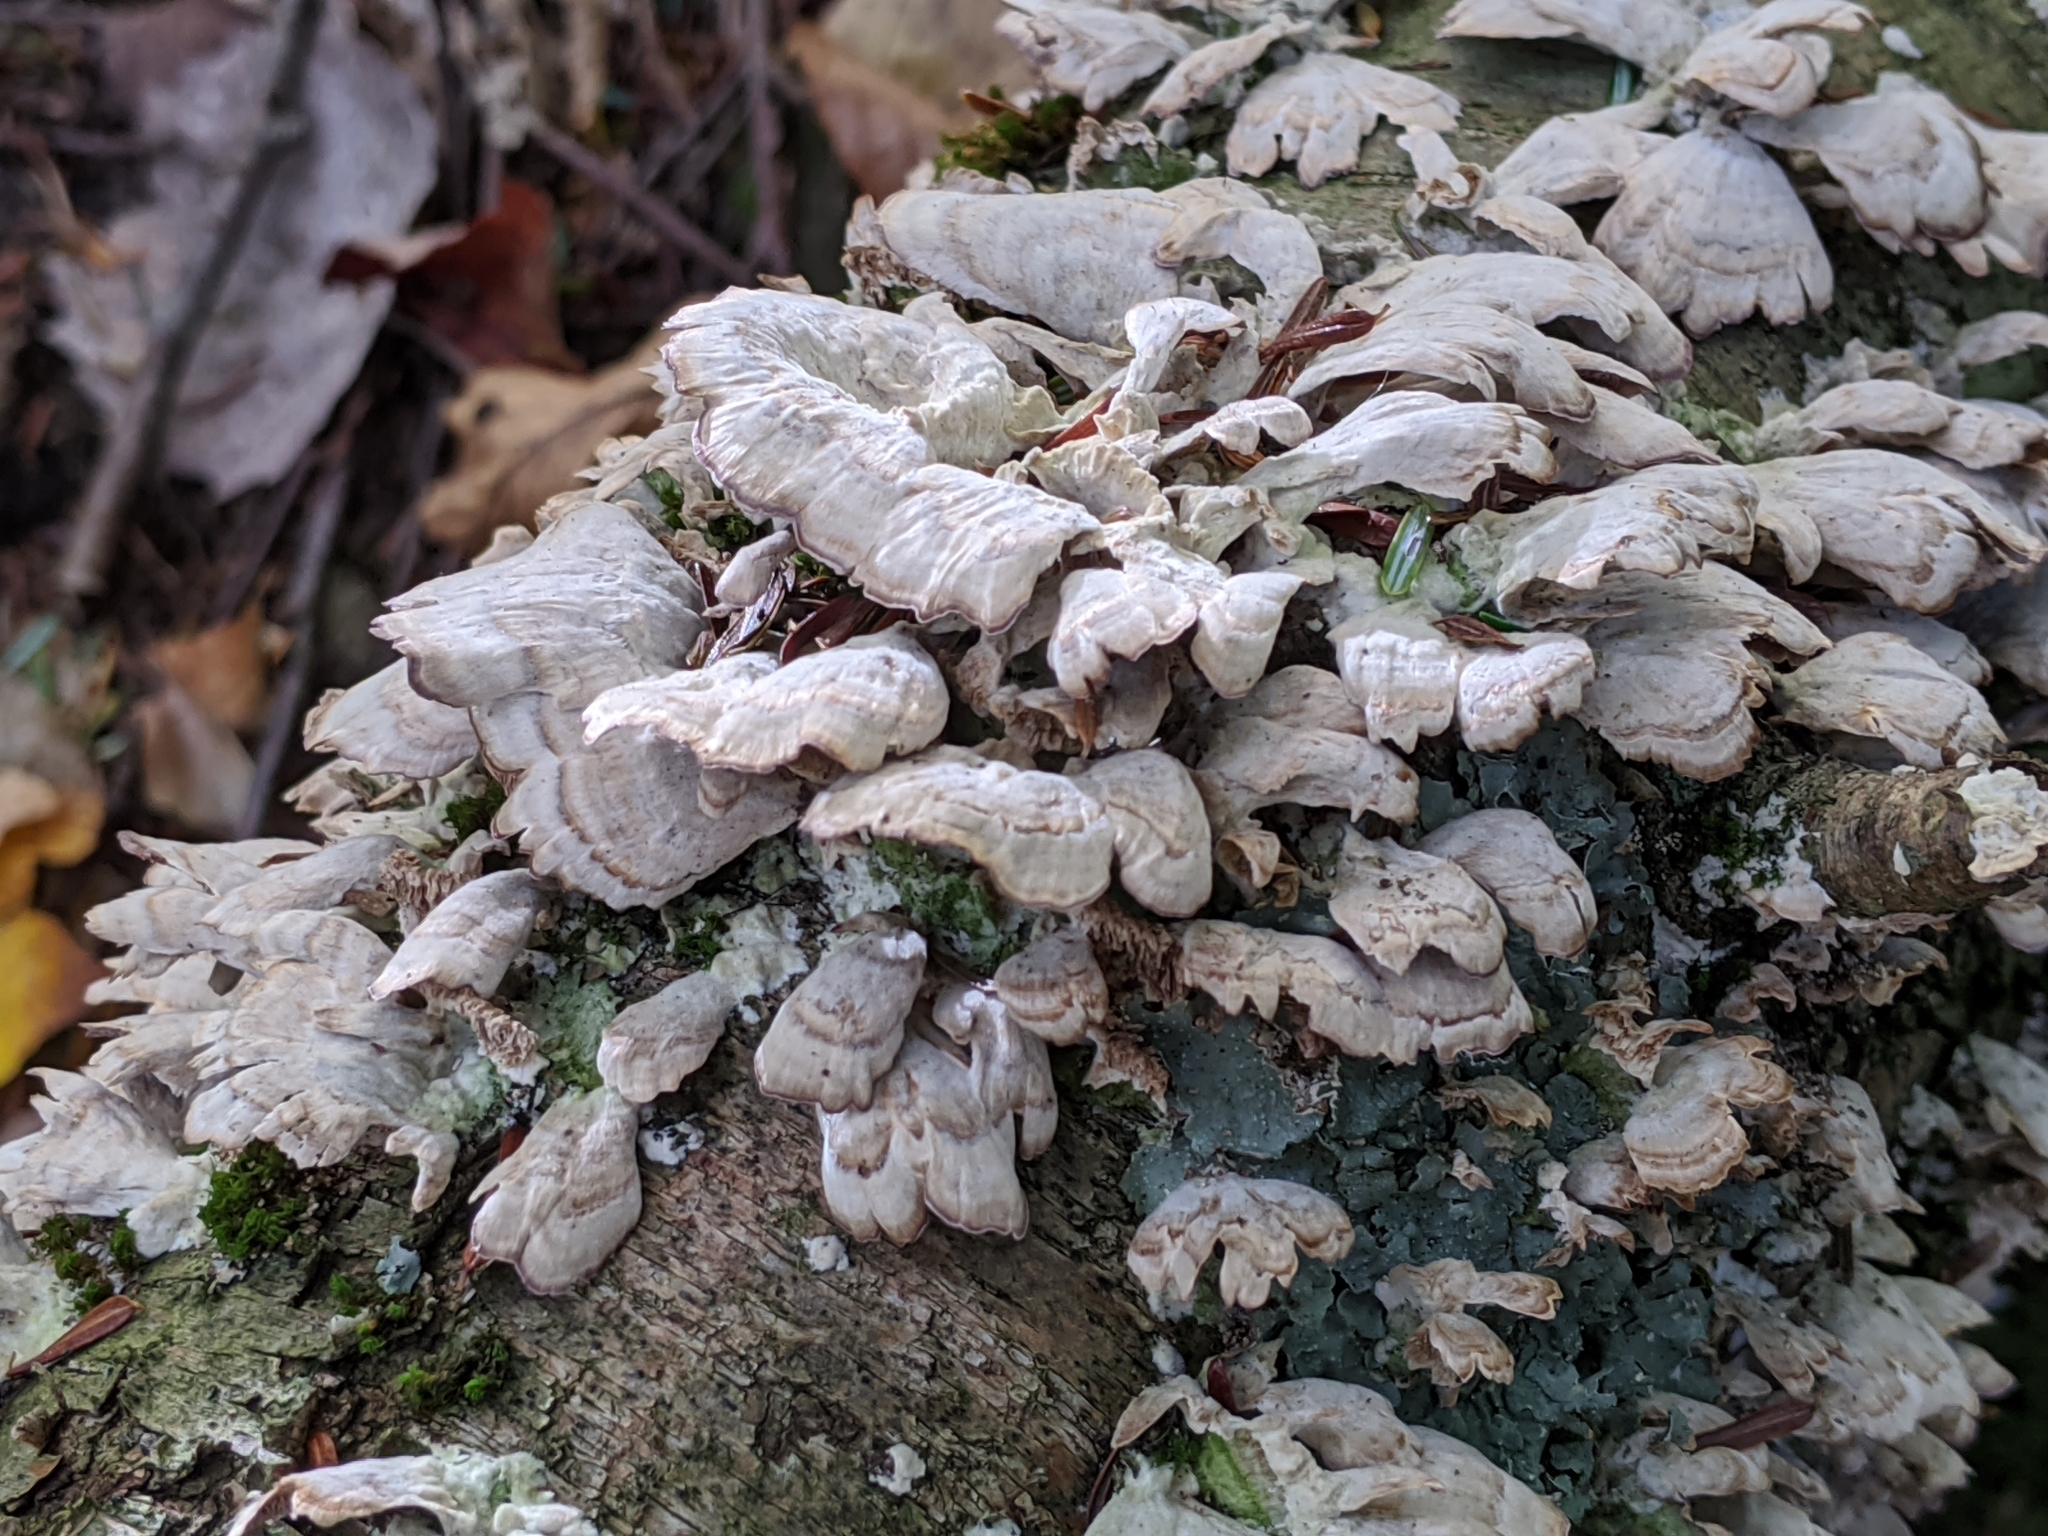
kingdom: Fungi
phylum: Basidiomycota
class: Agaricomycetes
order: Hymenochaetales
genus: Trichaptum
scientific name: Trichaptum biforme
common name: Violet-toothed polypore
